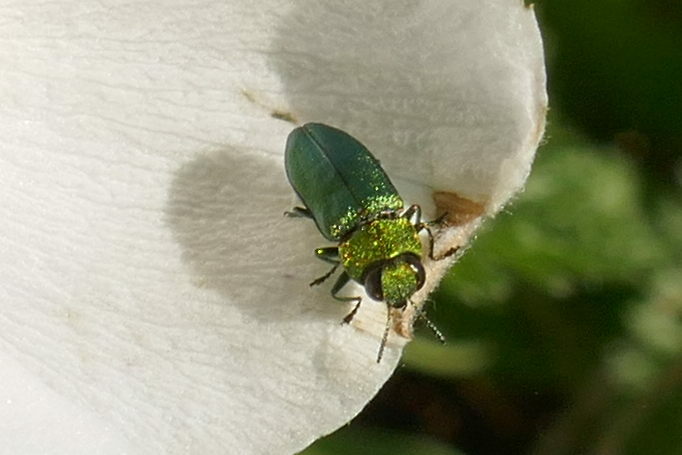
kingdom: Animalia
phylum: Arthropoda
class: Insecta
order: Coleoptera
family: Buprestidae
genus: Anthaxia
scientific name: Anthaxia nitidula
